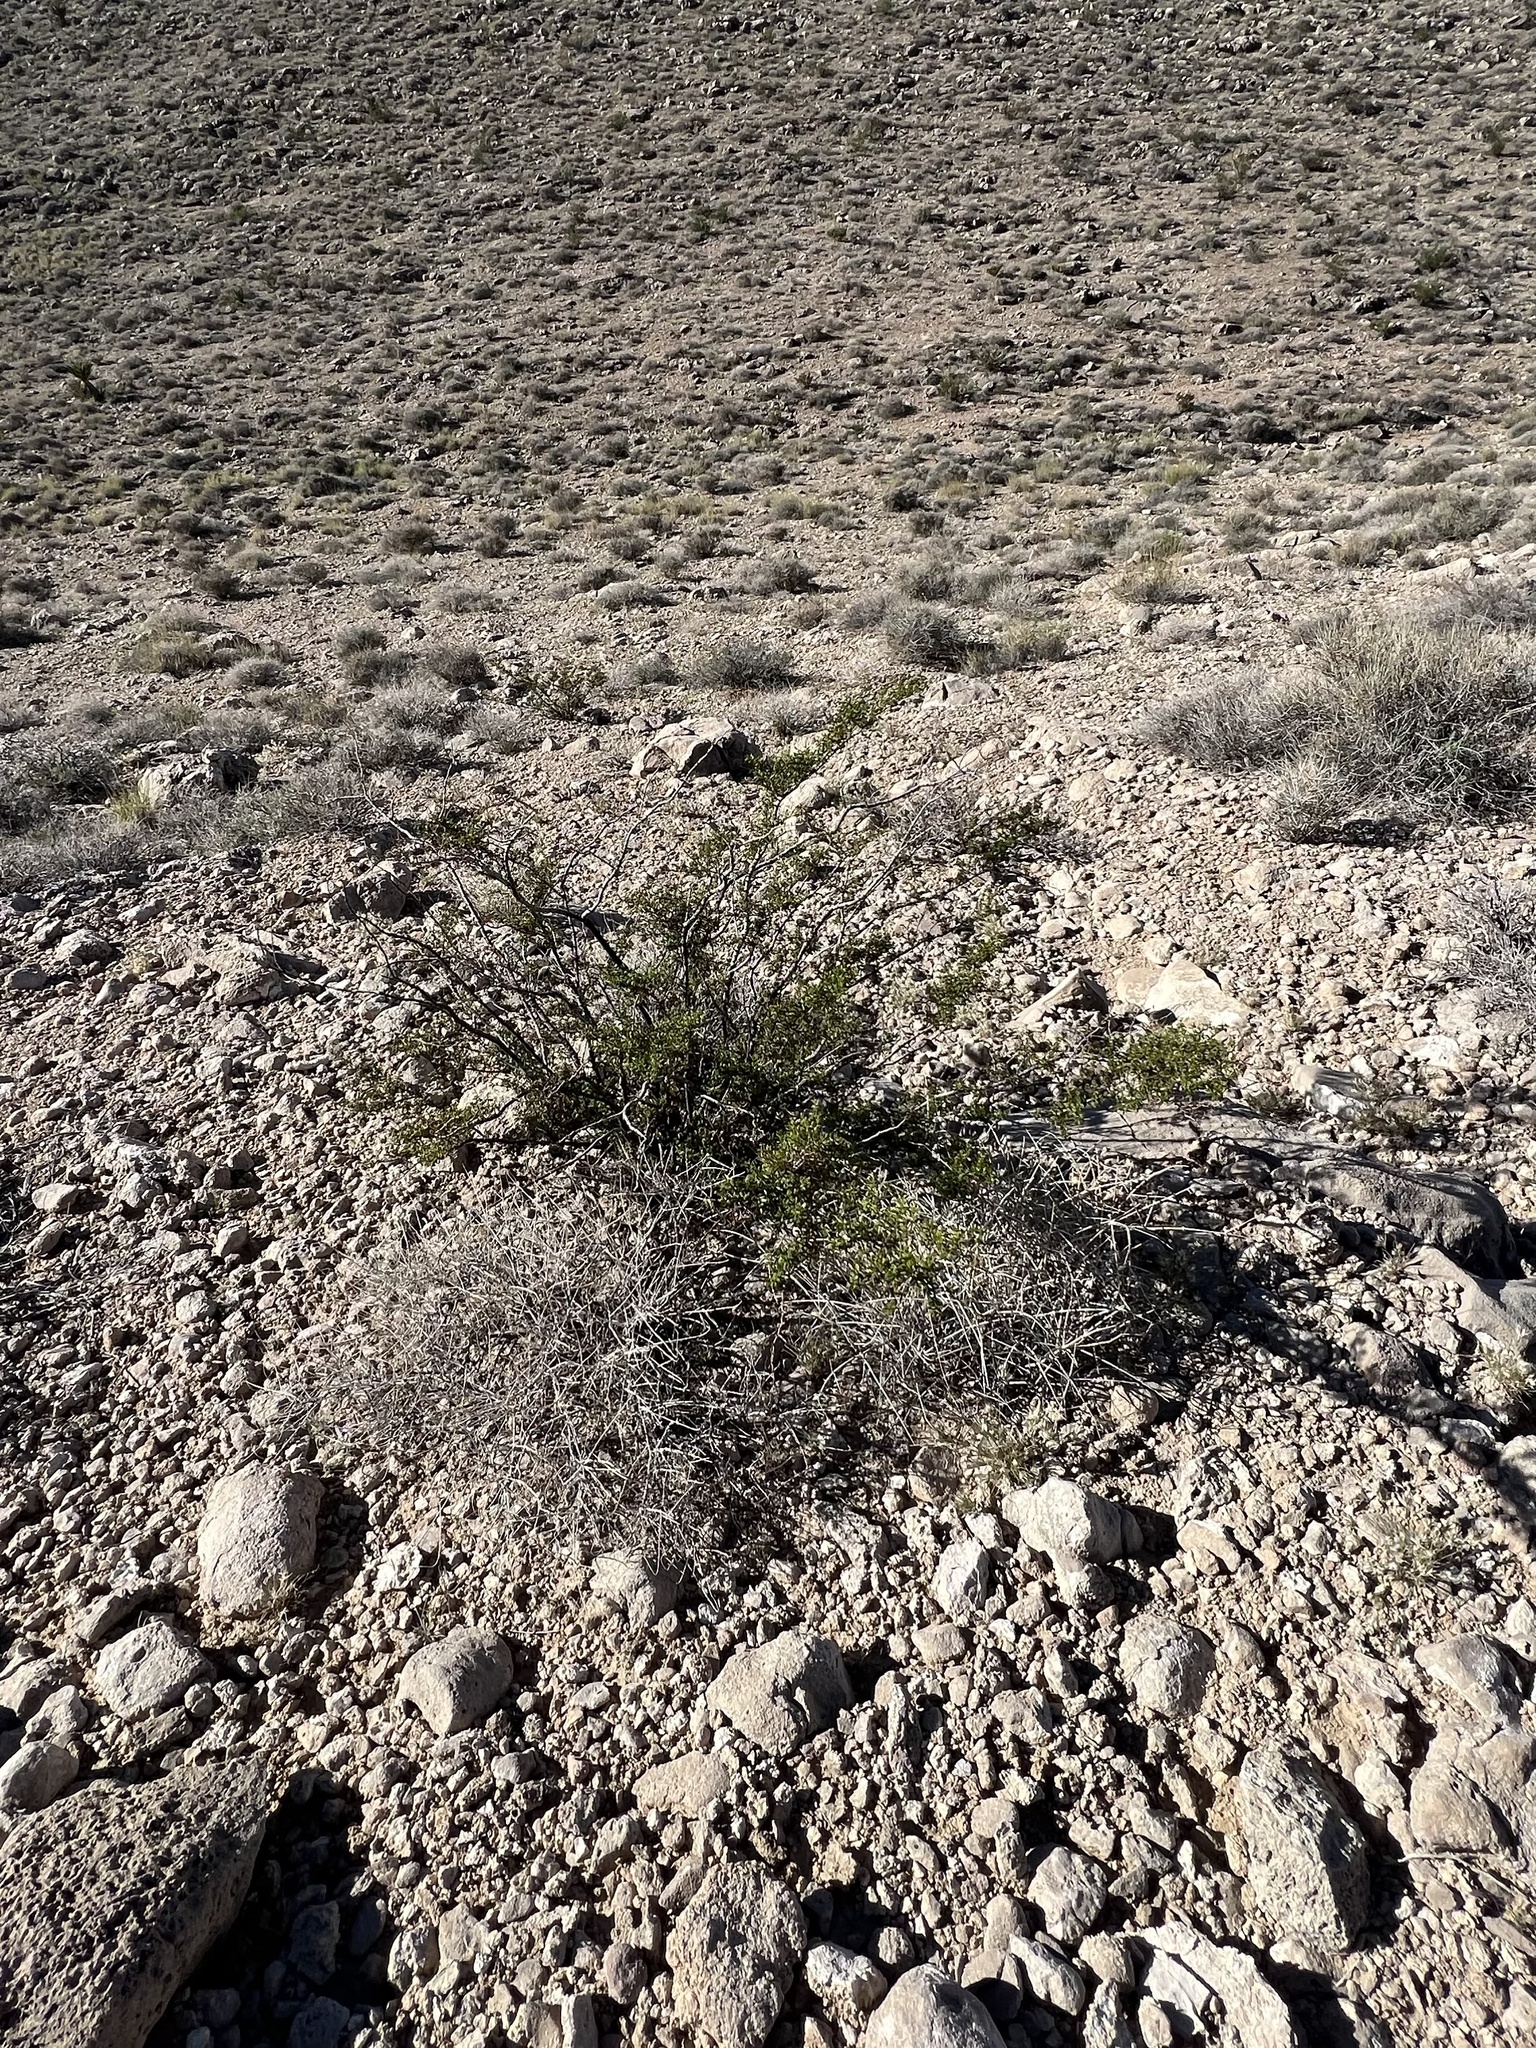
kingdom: Plantae
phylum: Tracheophyta
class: Magnoliopsida
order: Zygophyllales
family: Zygophyllaceae
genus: Larrea
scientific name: Larrea tridentata
